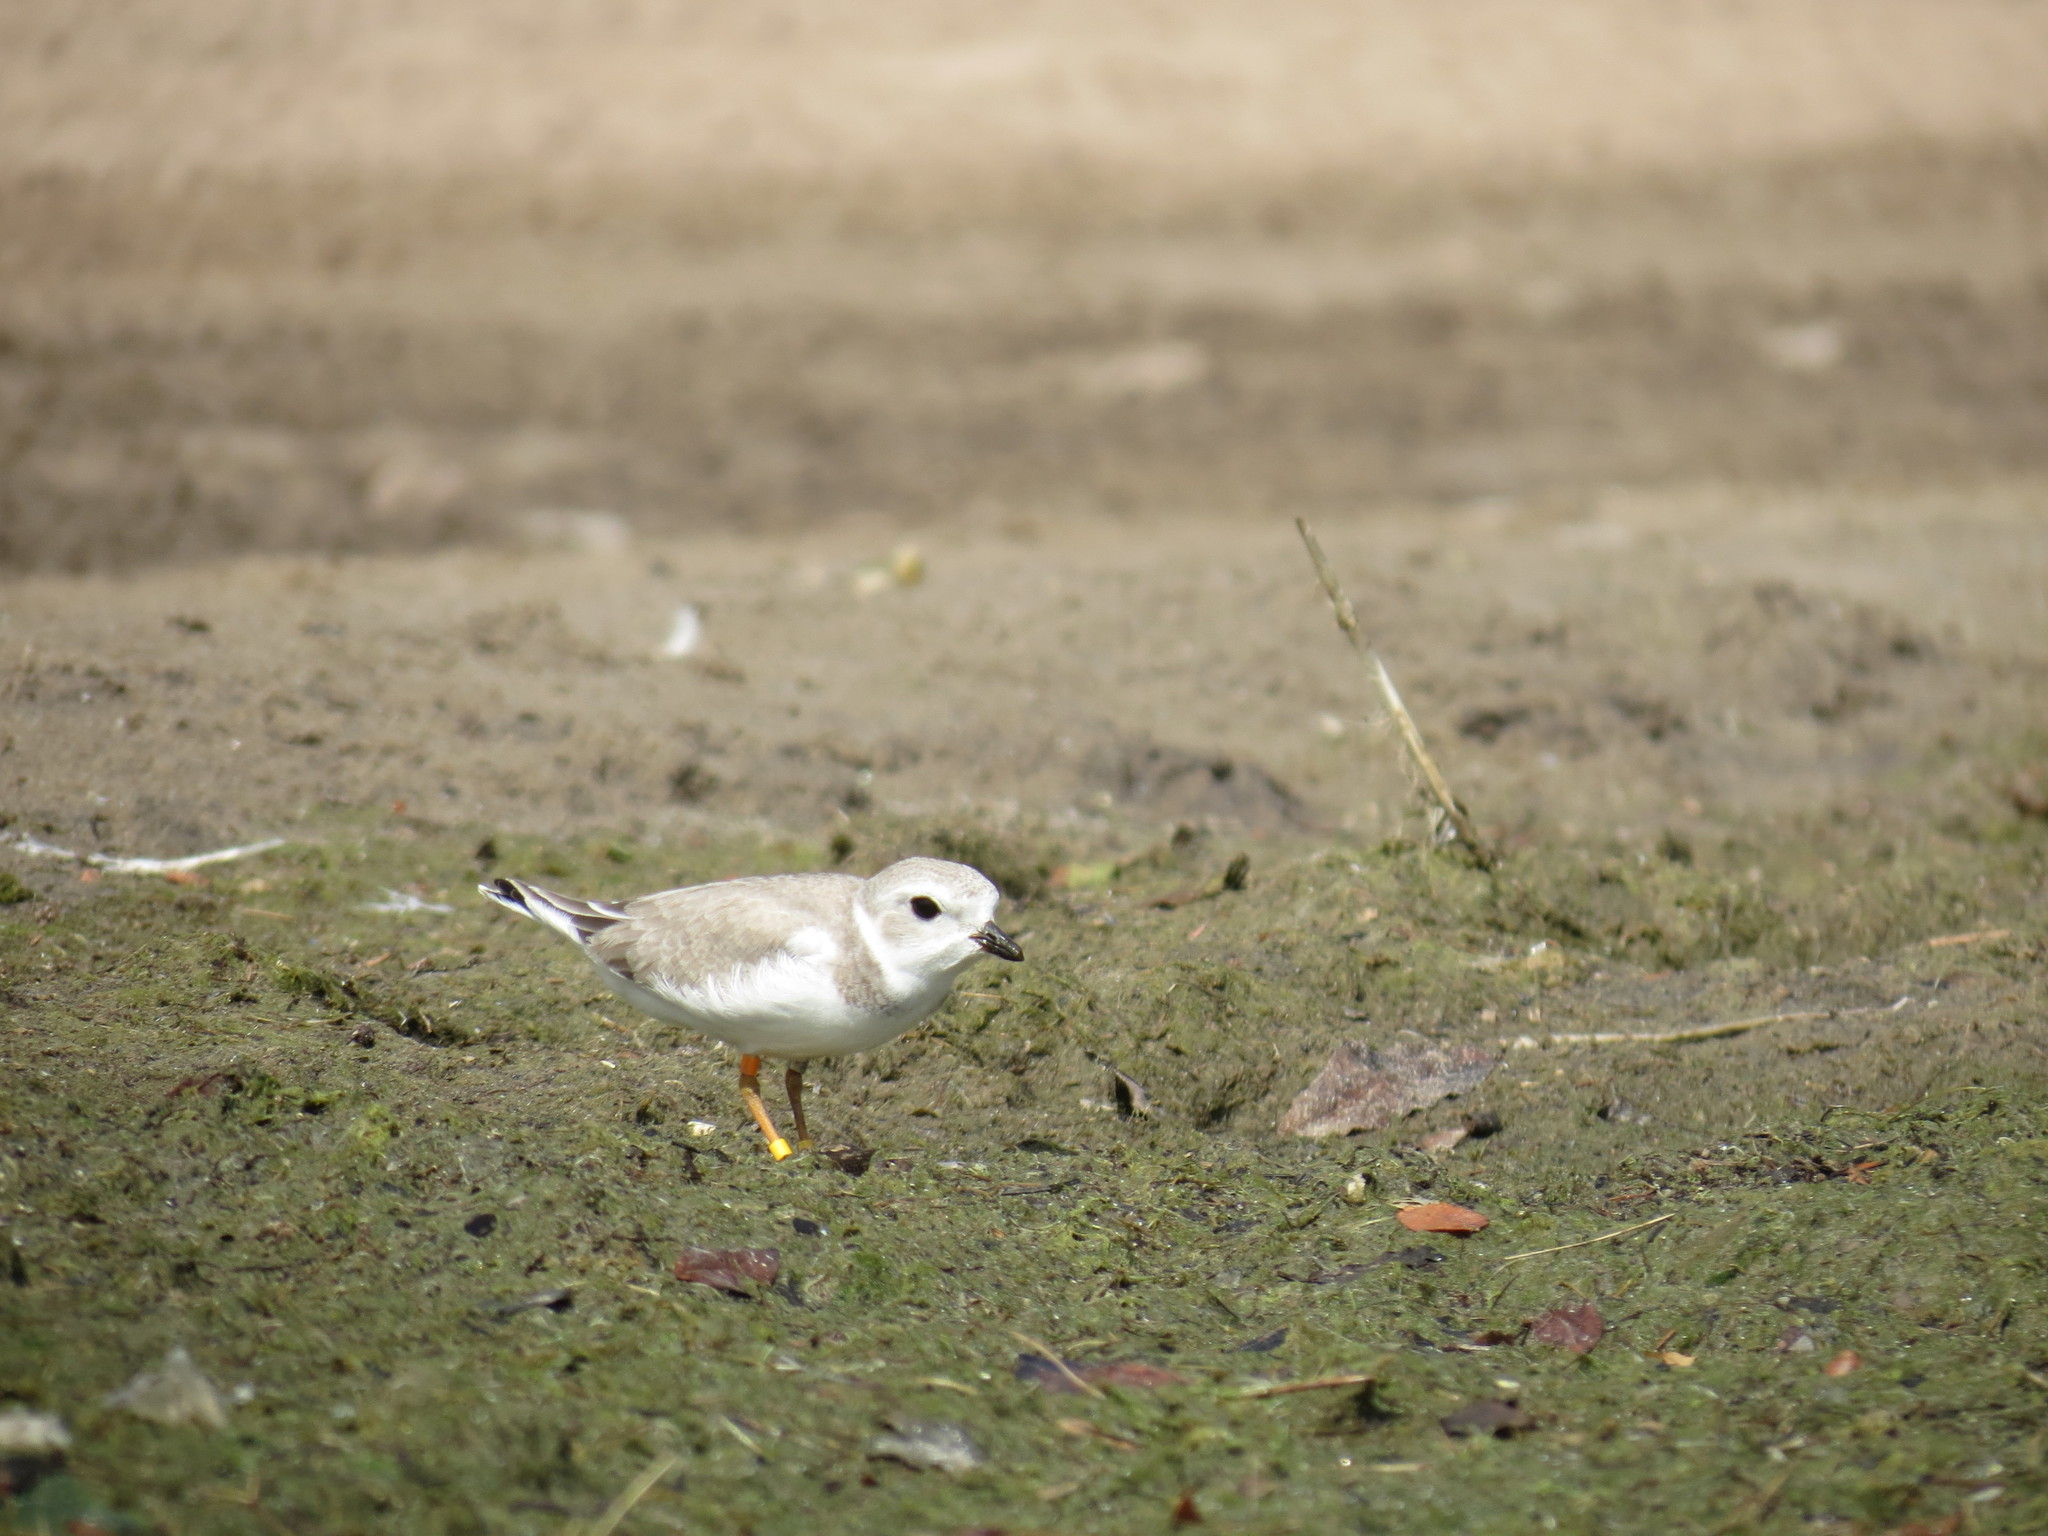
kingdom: Animalia
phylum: Chordata
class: Aves
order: Charadriiformes
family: Charadriidae
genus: Charadrius
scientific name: Charadrius melodus
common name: Piping plover
